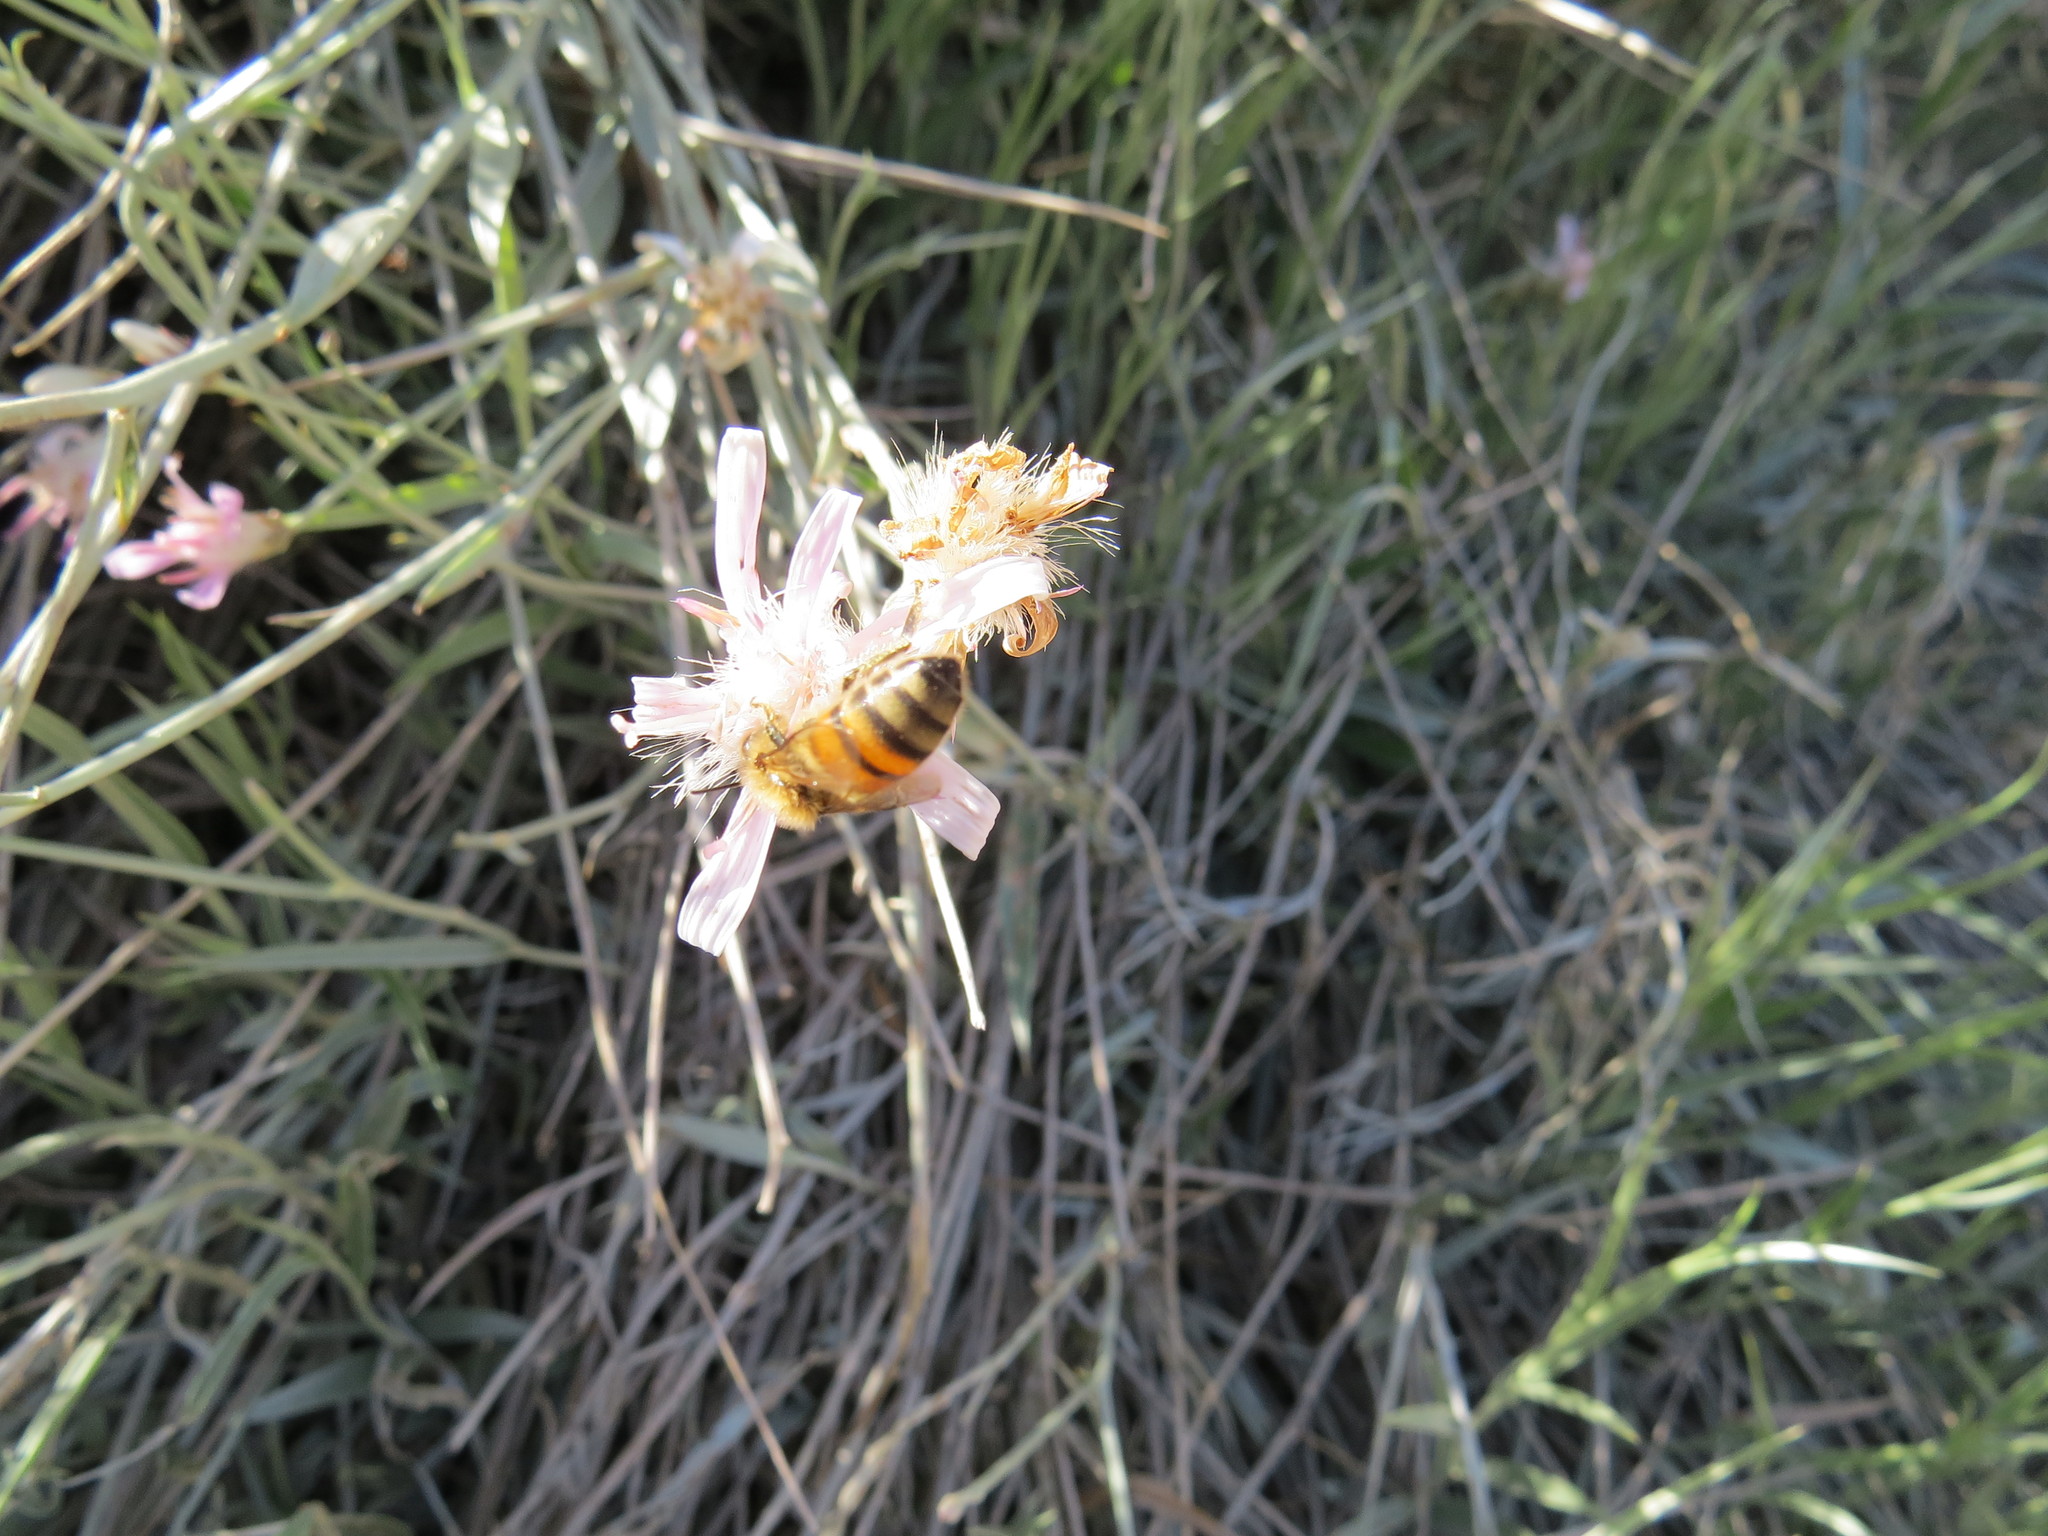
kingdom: Animalia
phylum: Arthropoda
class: Insecta
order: Hymenoptera
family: Apidae
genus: Apis
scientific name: Apis mellifera
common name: Honey bee
